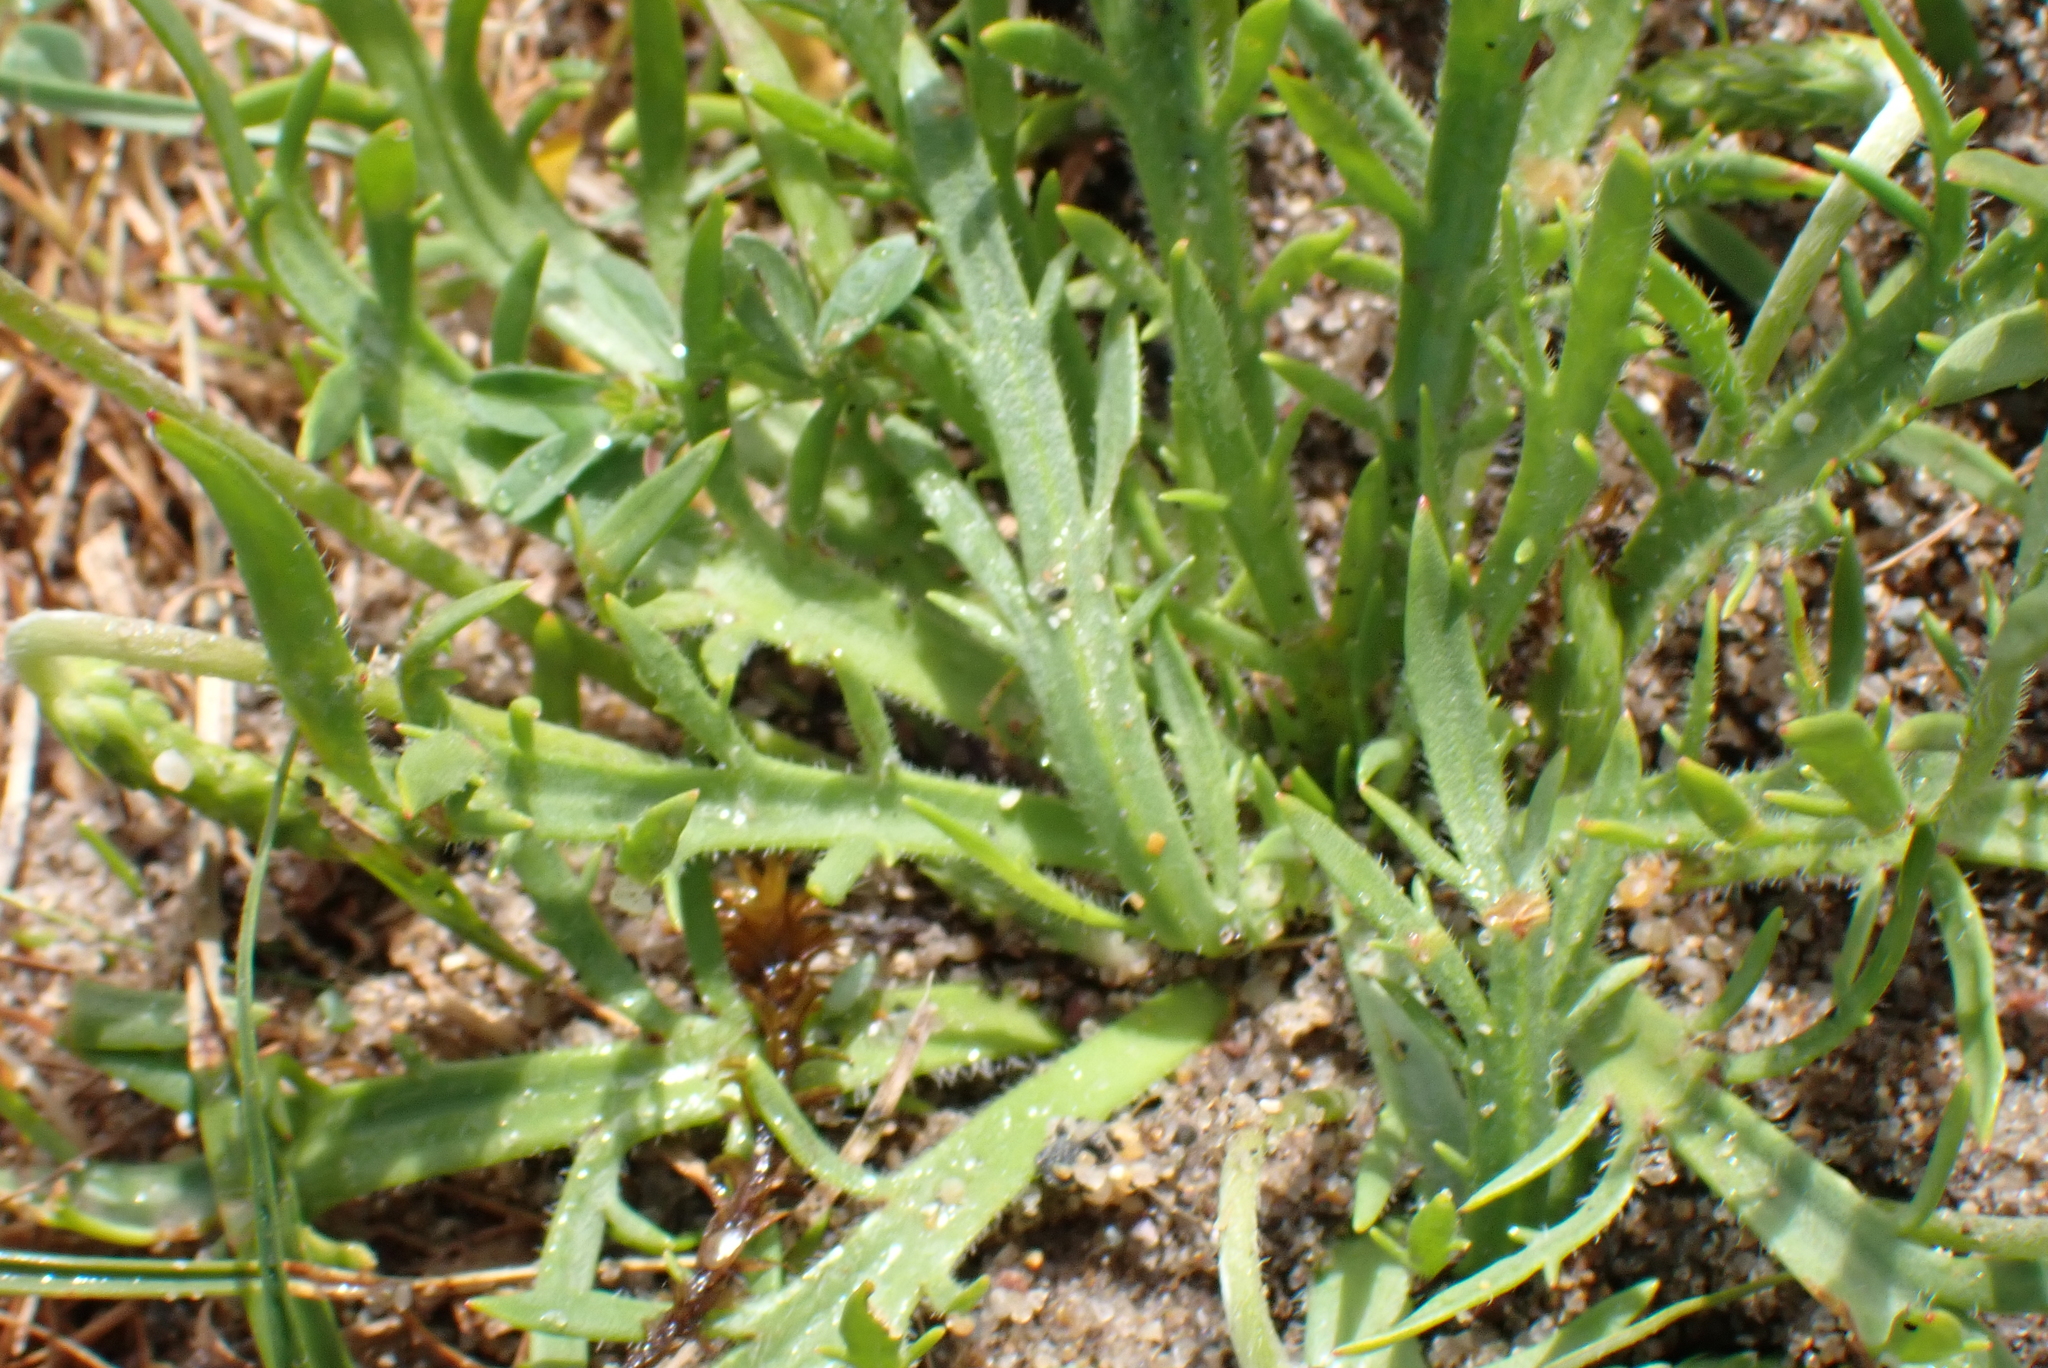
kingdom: Plantae
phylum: Tracheophyta
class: Magnoliopsida
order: Lamiales
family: Plantaginaceae
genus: Plantago
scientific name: Plantago coronopus
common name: Buck's-horn plantain
